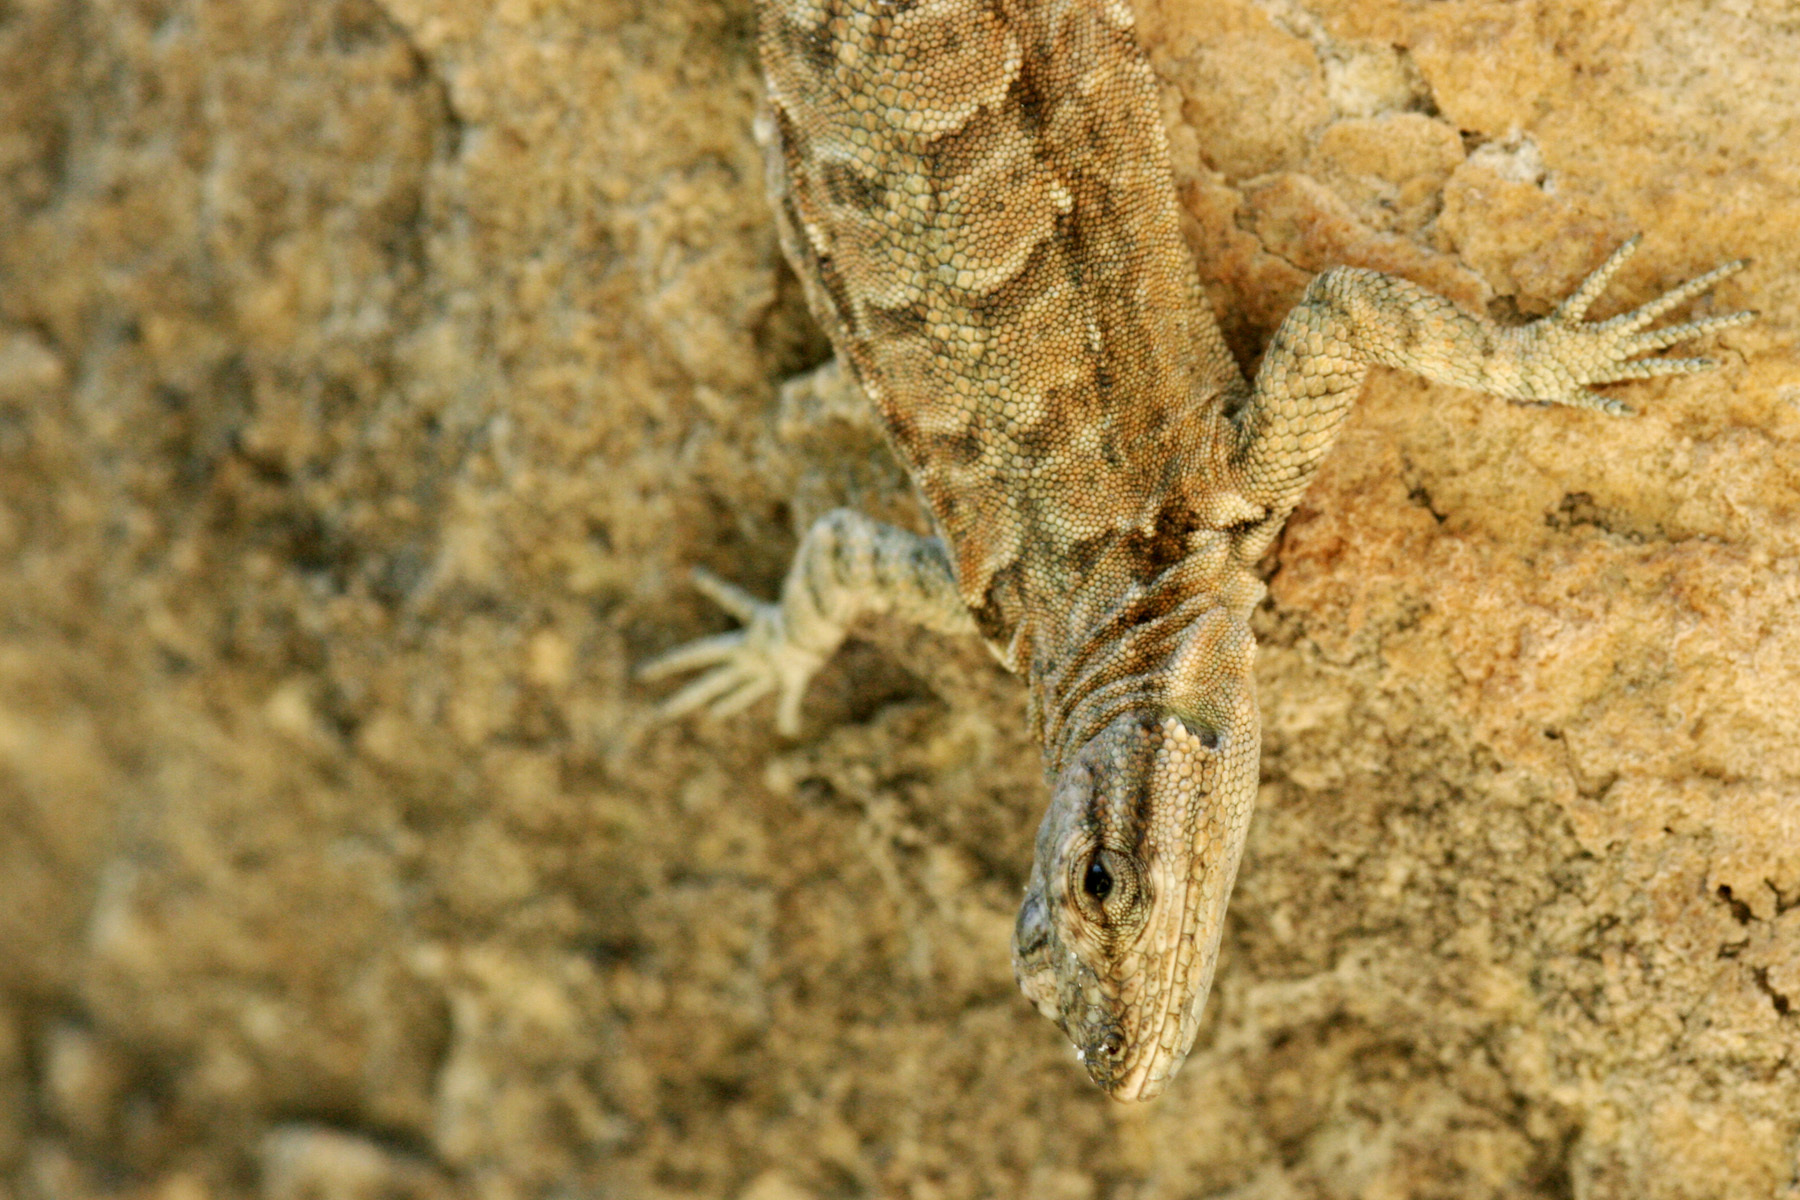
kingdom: Animalia
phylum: Chordata
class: Squamata
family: Phrynosomatidae
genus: Urosaurus
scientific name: Urosaurus ornatus
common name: Ornate tree lizard
